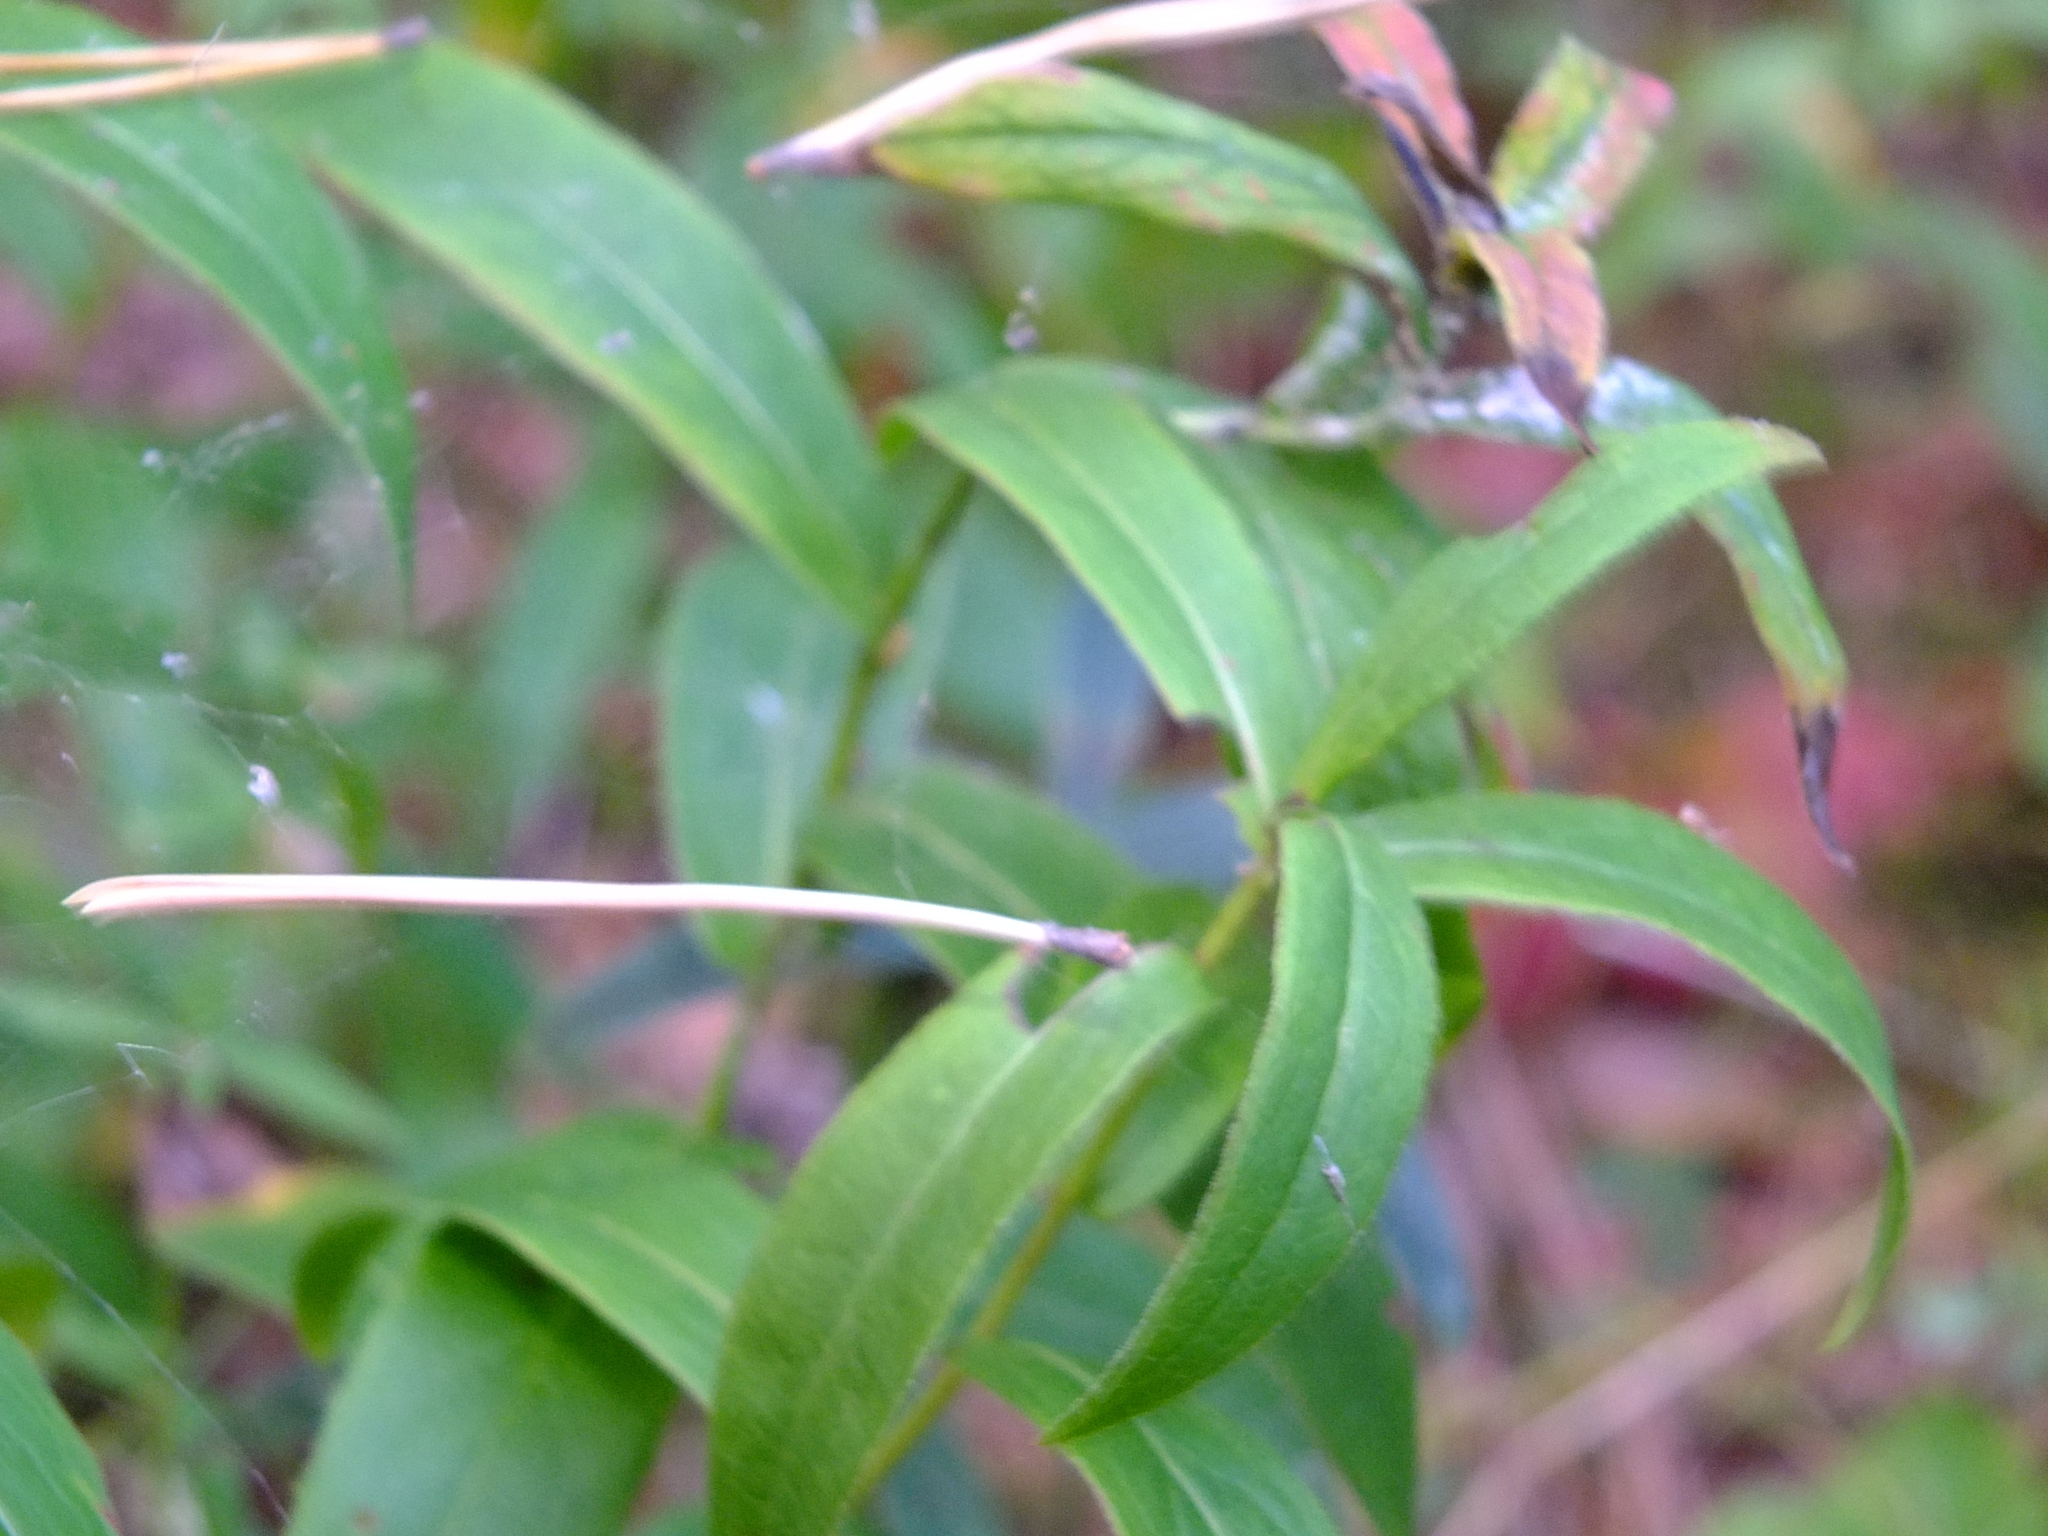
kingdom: Plantae
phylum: Tracheophyta
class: Magnoliopsida
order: Asterales
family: Asteraceae
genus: Pentanema
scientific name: Pentanema salicinum
